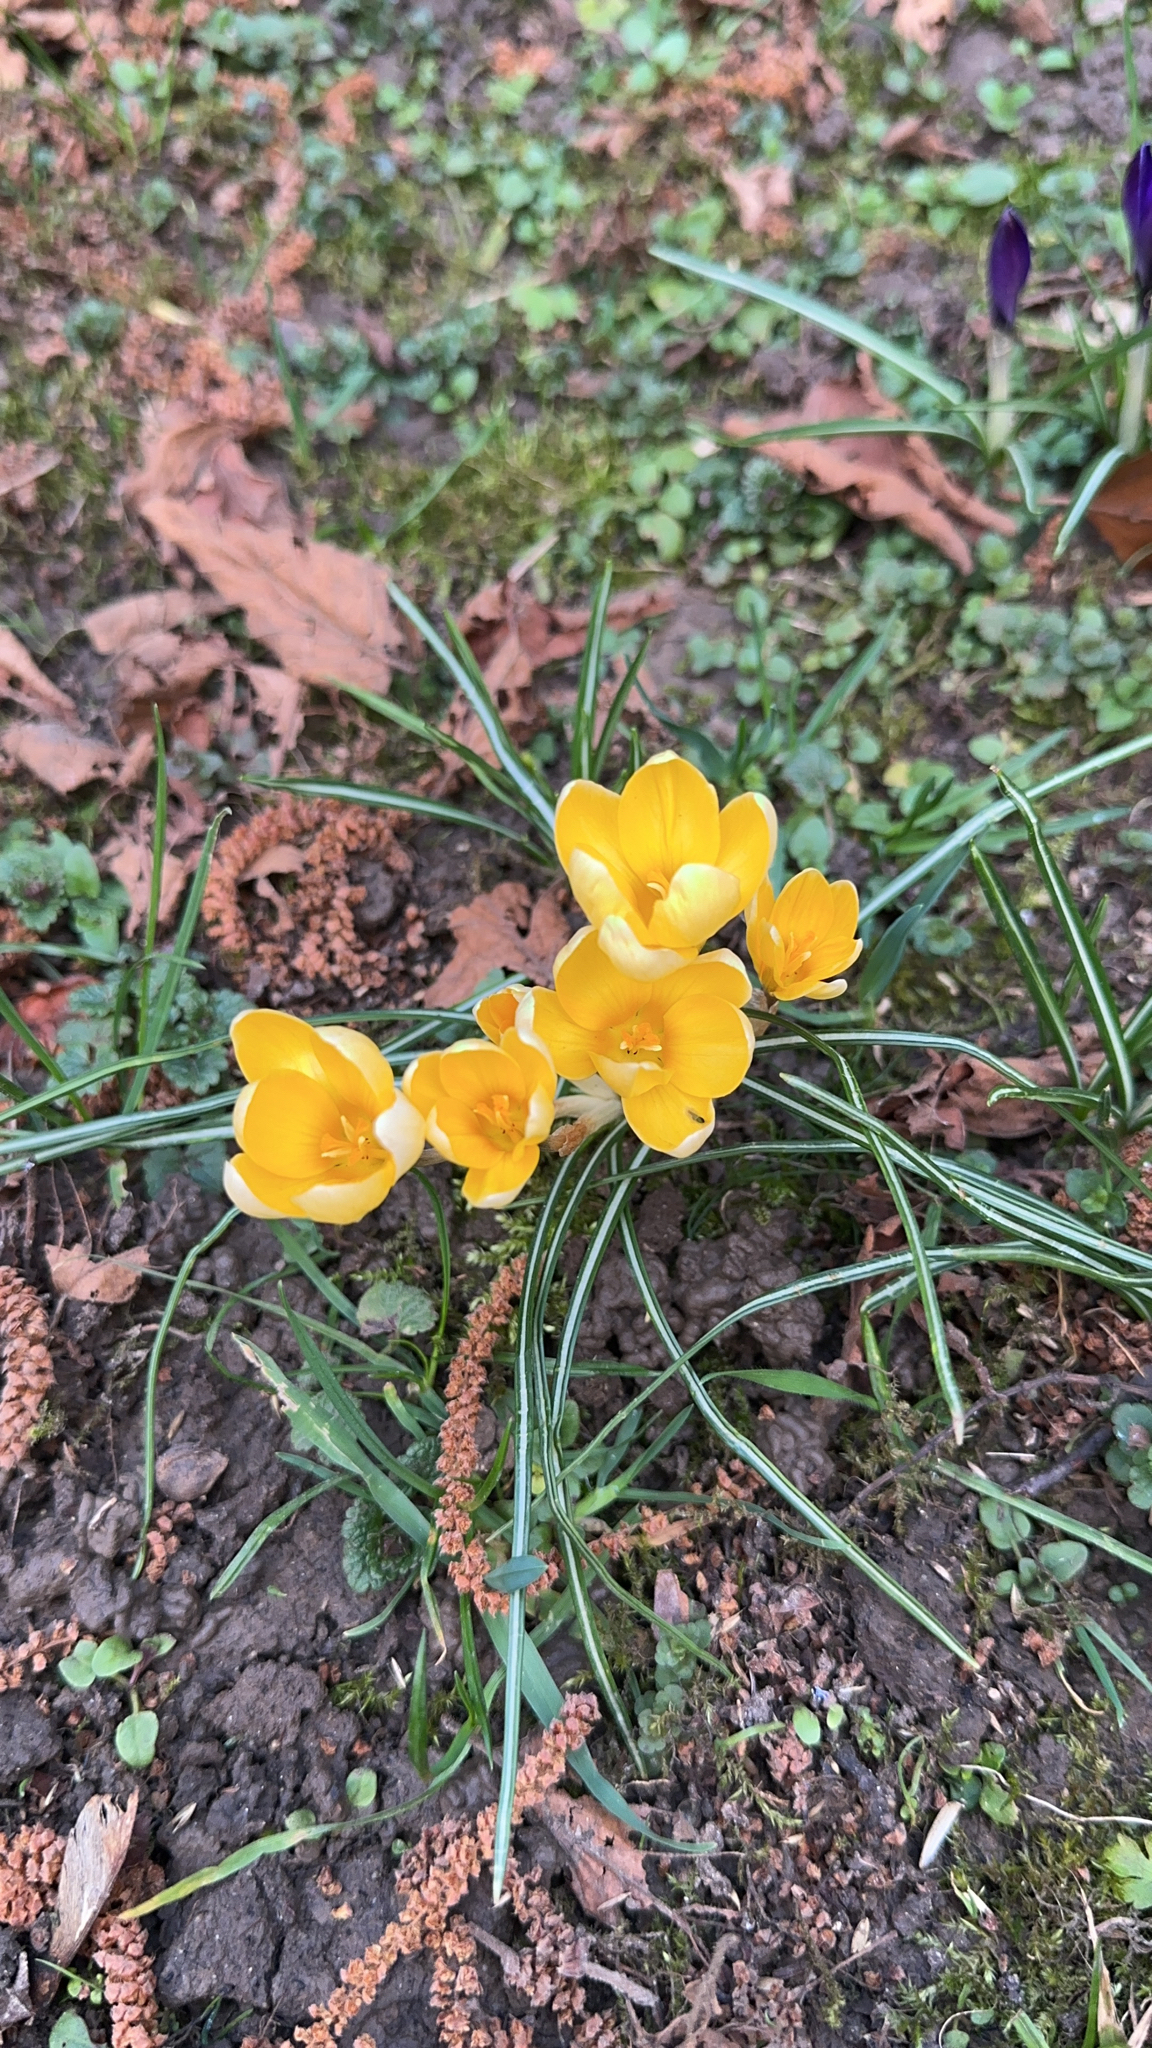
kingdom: Plantae
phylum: Tracheophyta
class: Liliopsida
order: Asparagales
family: Iridaceae
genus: Crocus
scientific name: Crocus chrysanthus
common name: Golden crocus
